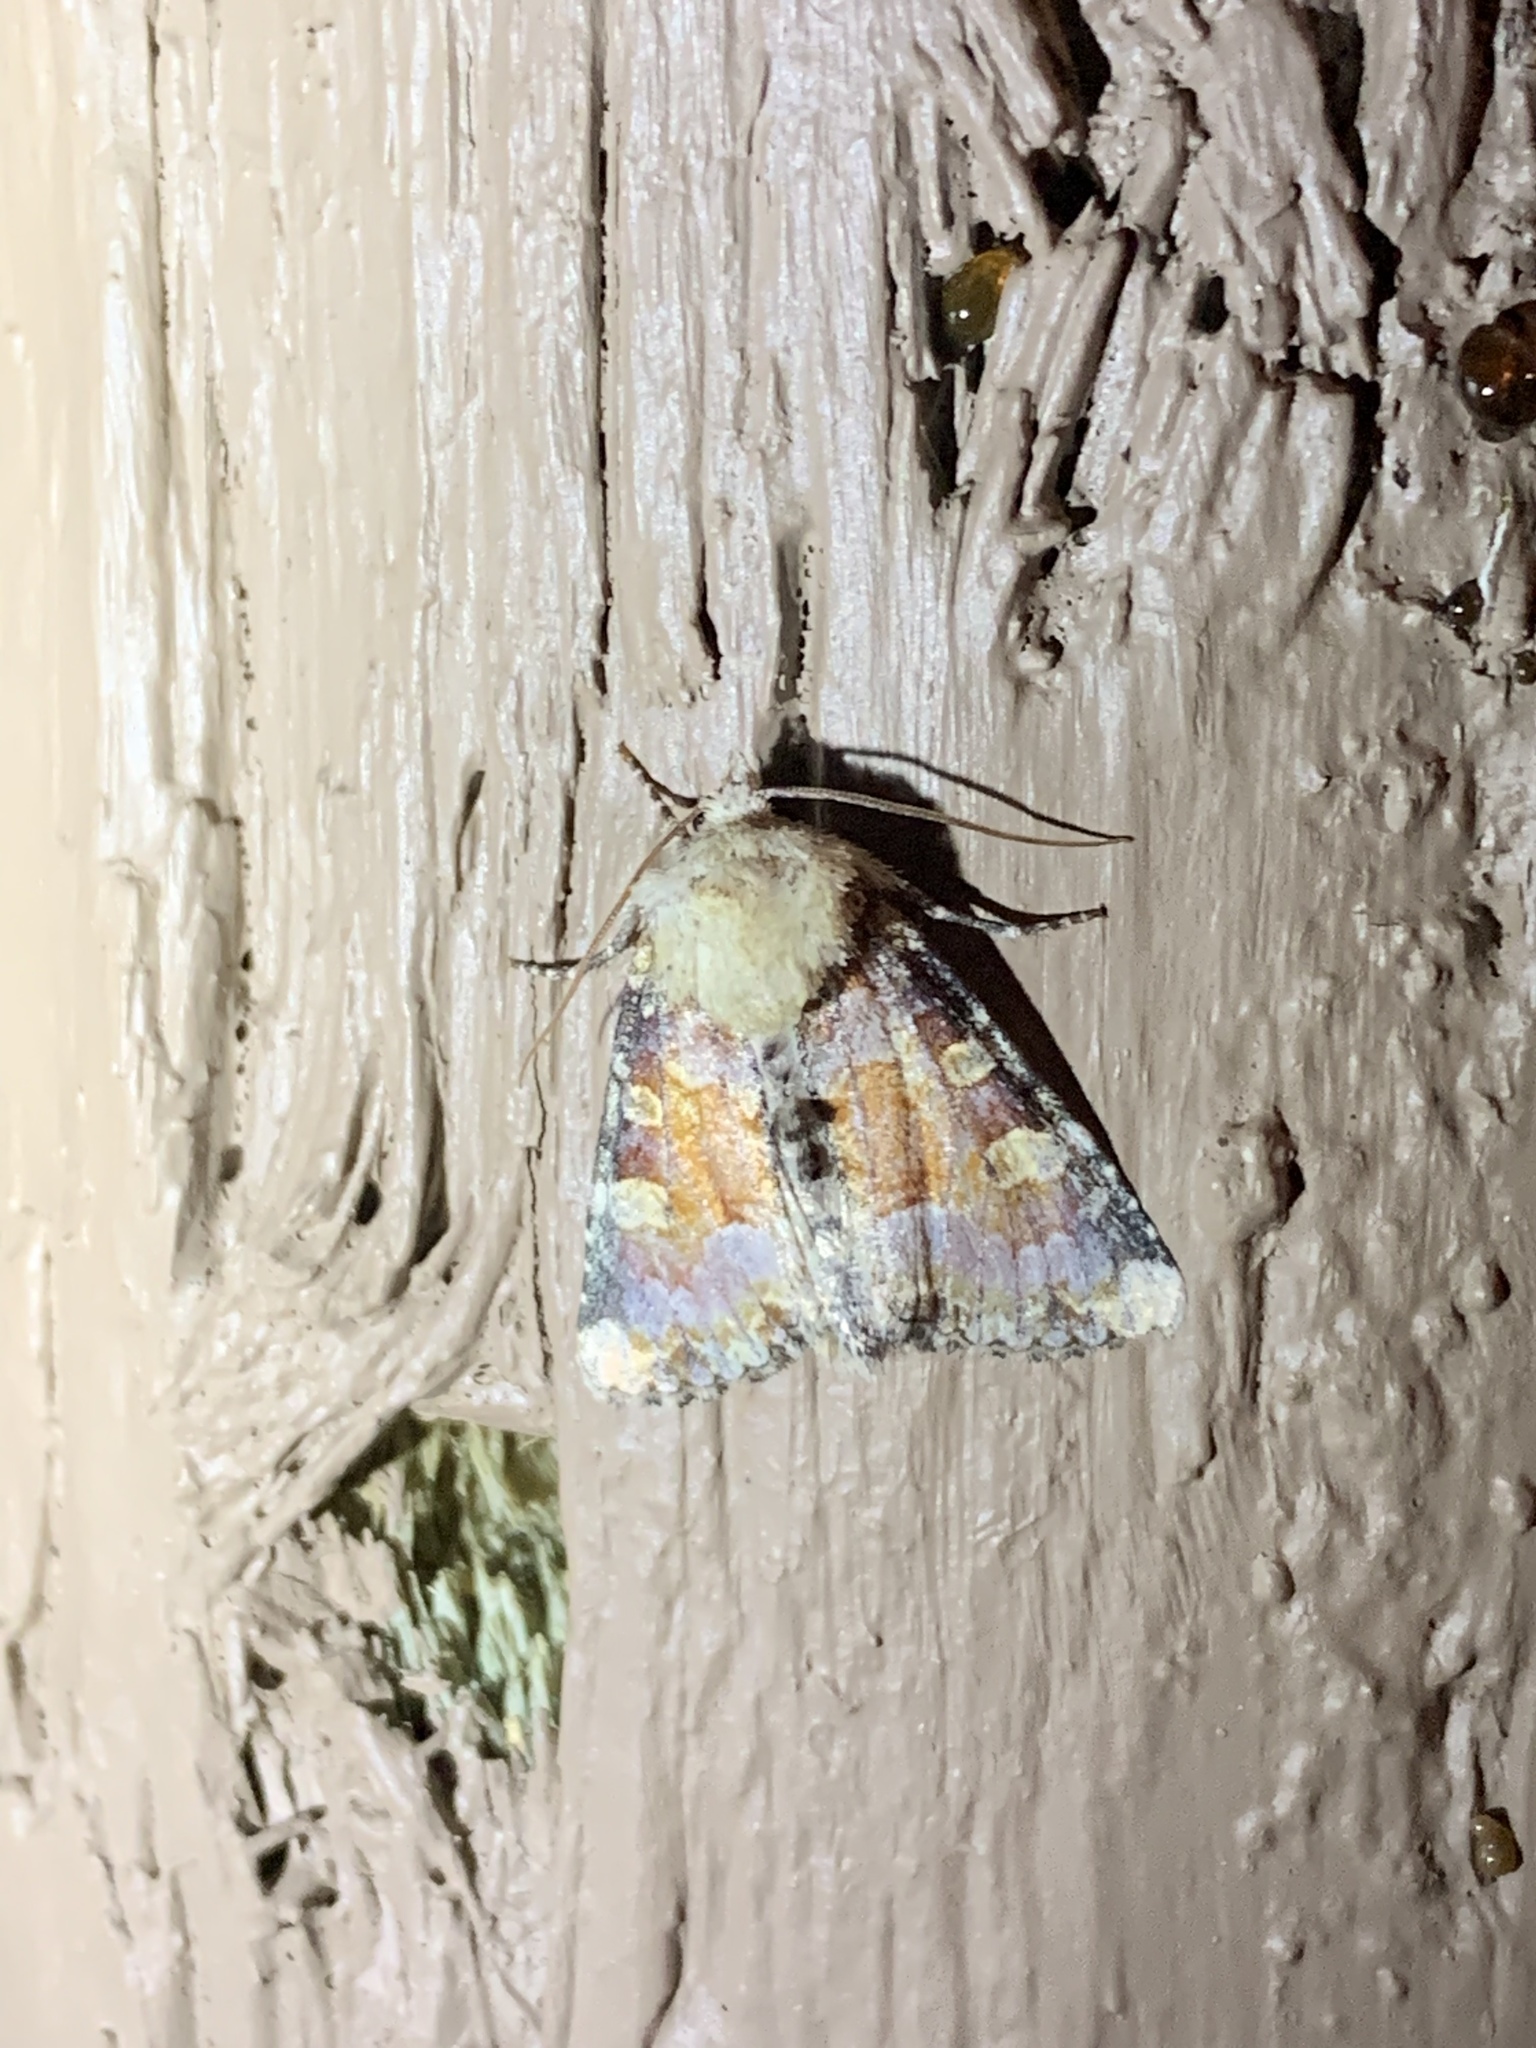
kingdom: Animalia
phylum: Arthropoda
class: Insecta
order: Lepidoptera
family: Noctuidae
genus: Oligia
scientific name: Oligia rampartensis
